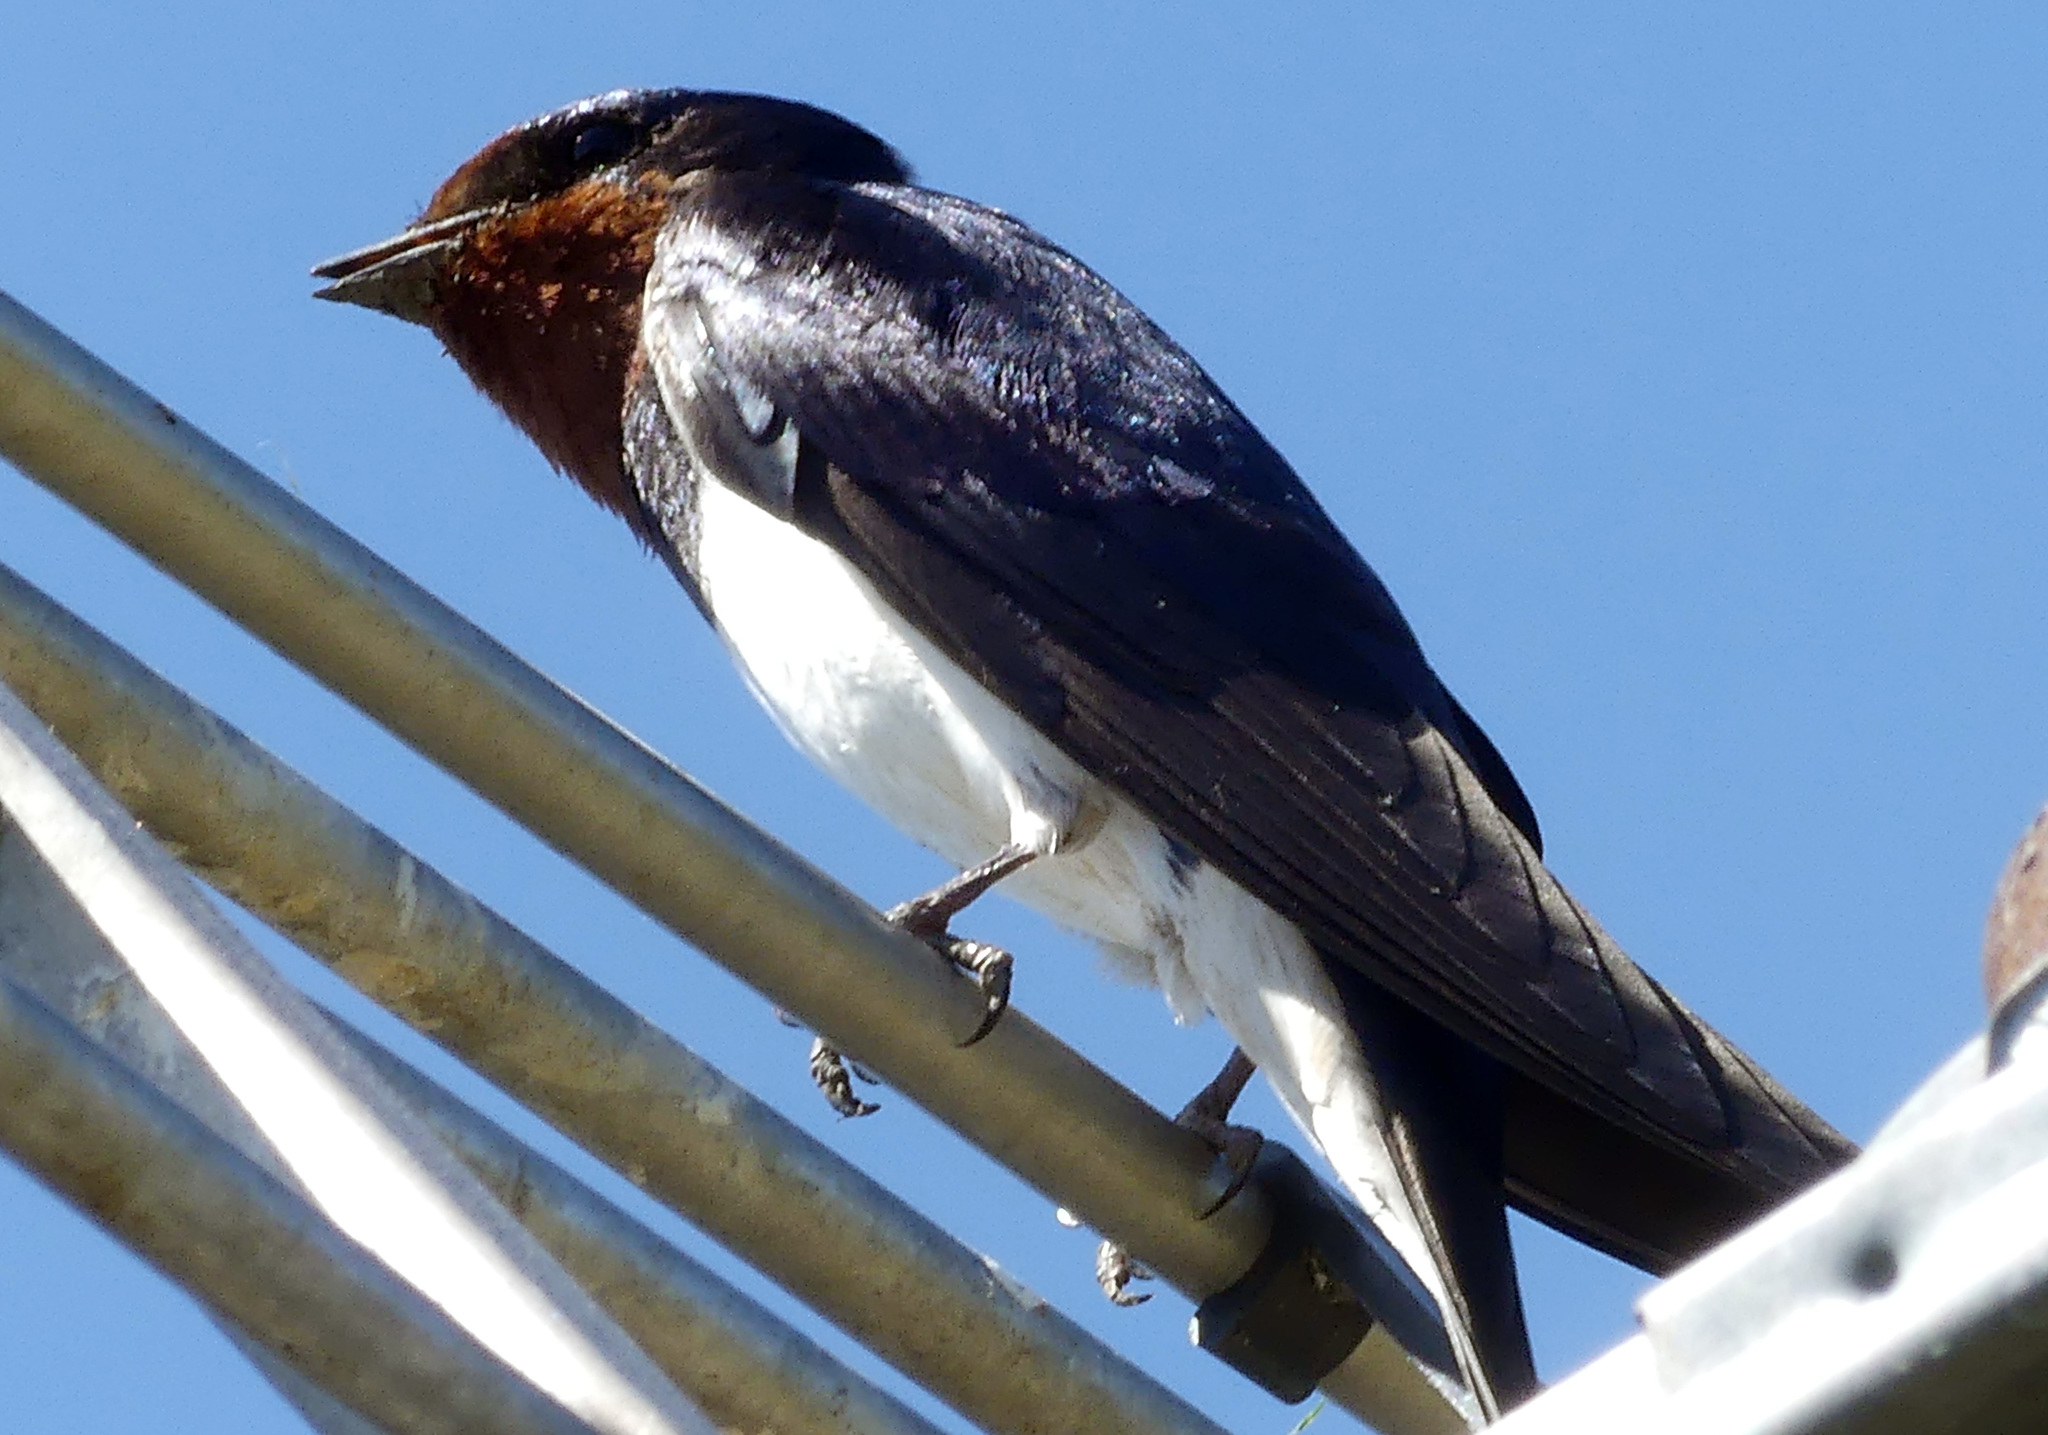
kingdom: Animalia
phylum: Chordata
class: Aves
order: Passeriformes
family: Hirundinidae
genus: Hirundo
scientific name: Hirundo rustica
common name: Barn swallow
